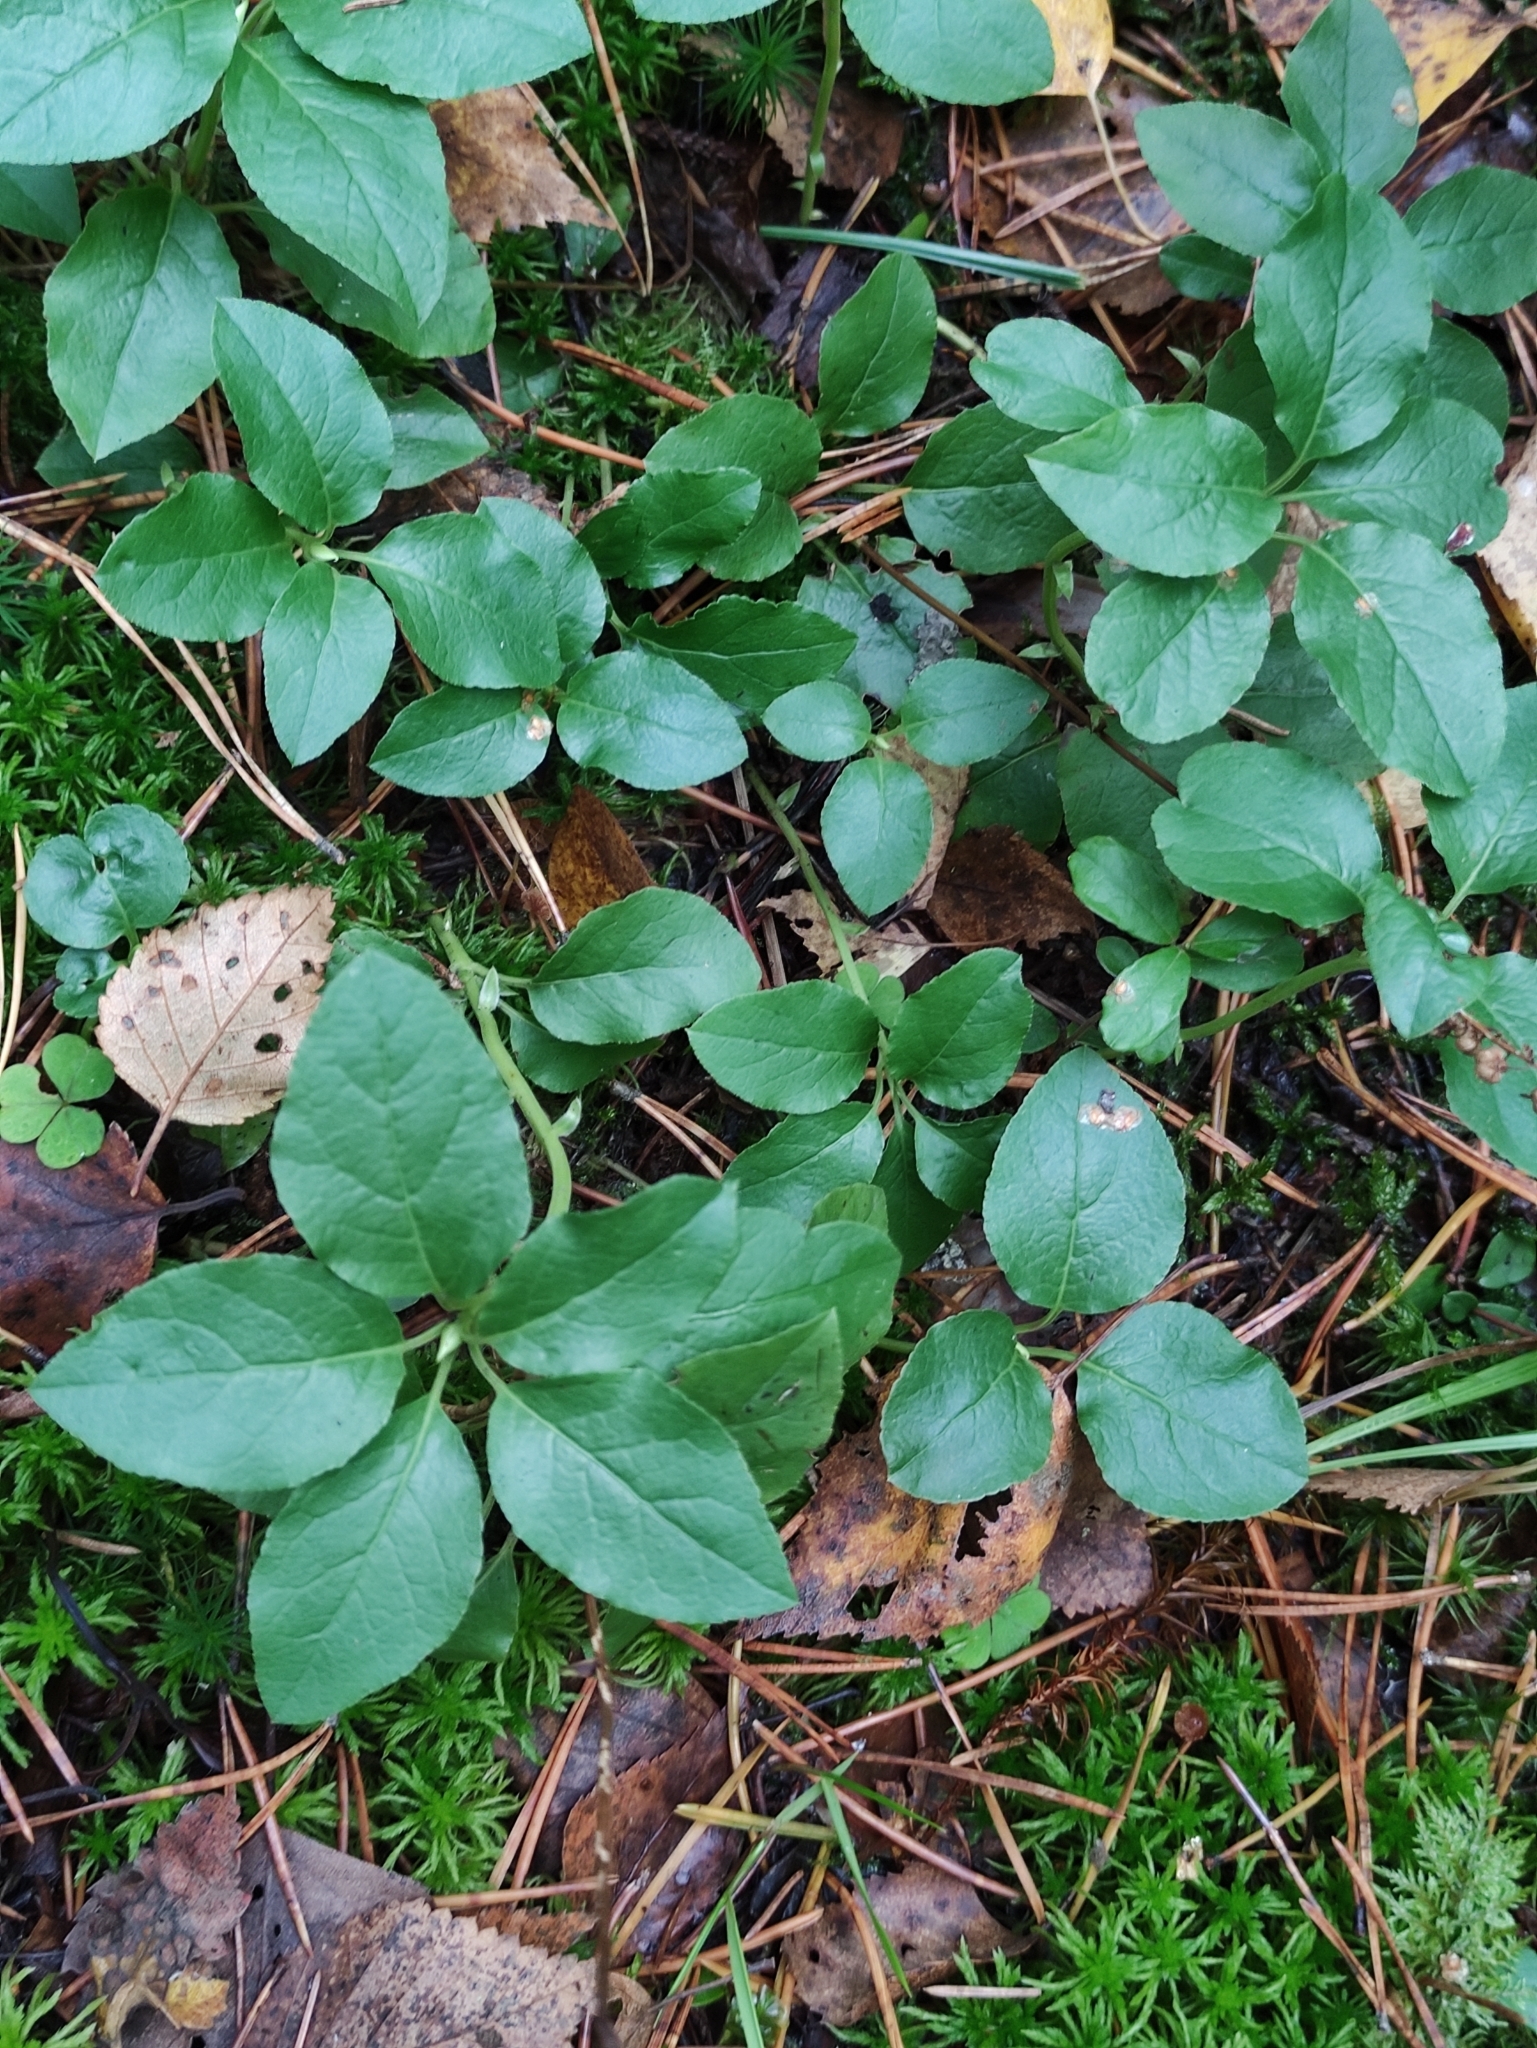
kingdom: Plantae
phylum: Tracheophyta
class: Magnoliopsida
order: Ericales
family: Ericaceae
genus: Orthilia
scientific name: Orthilia secunda
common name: One-sided orthilia
